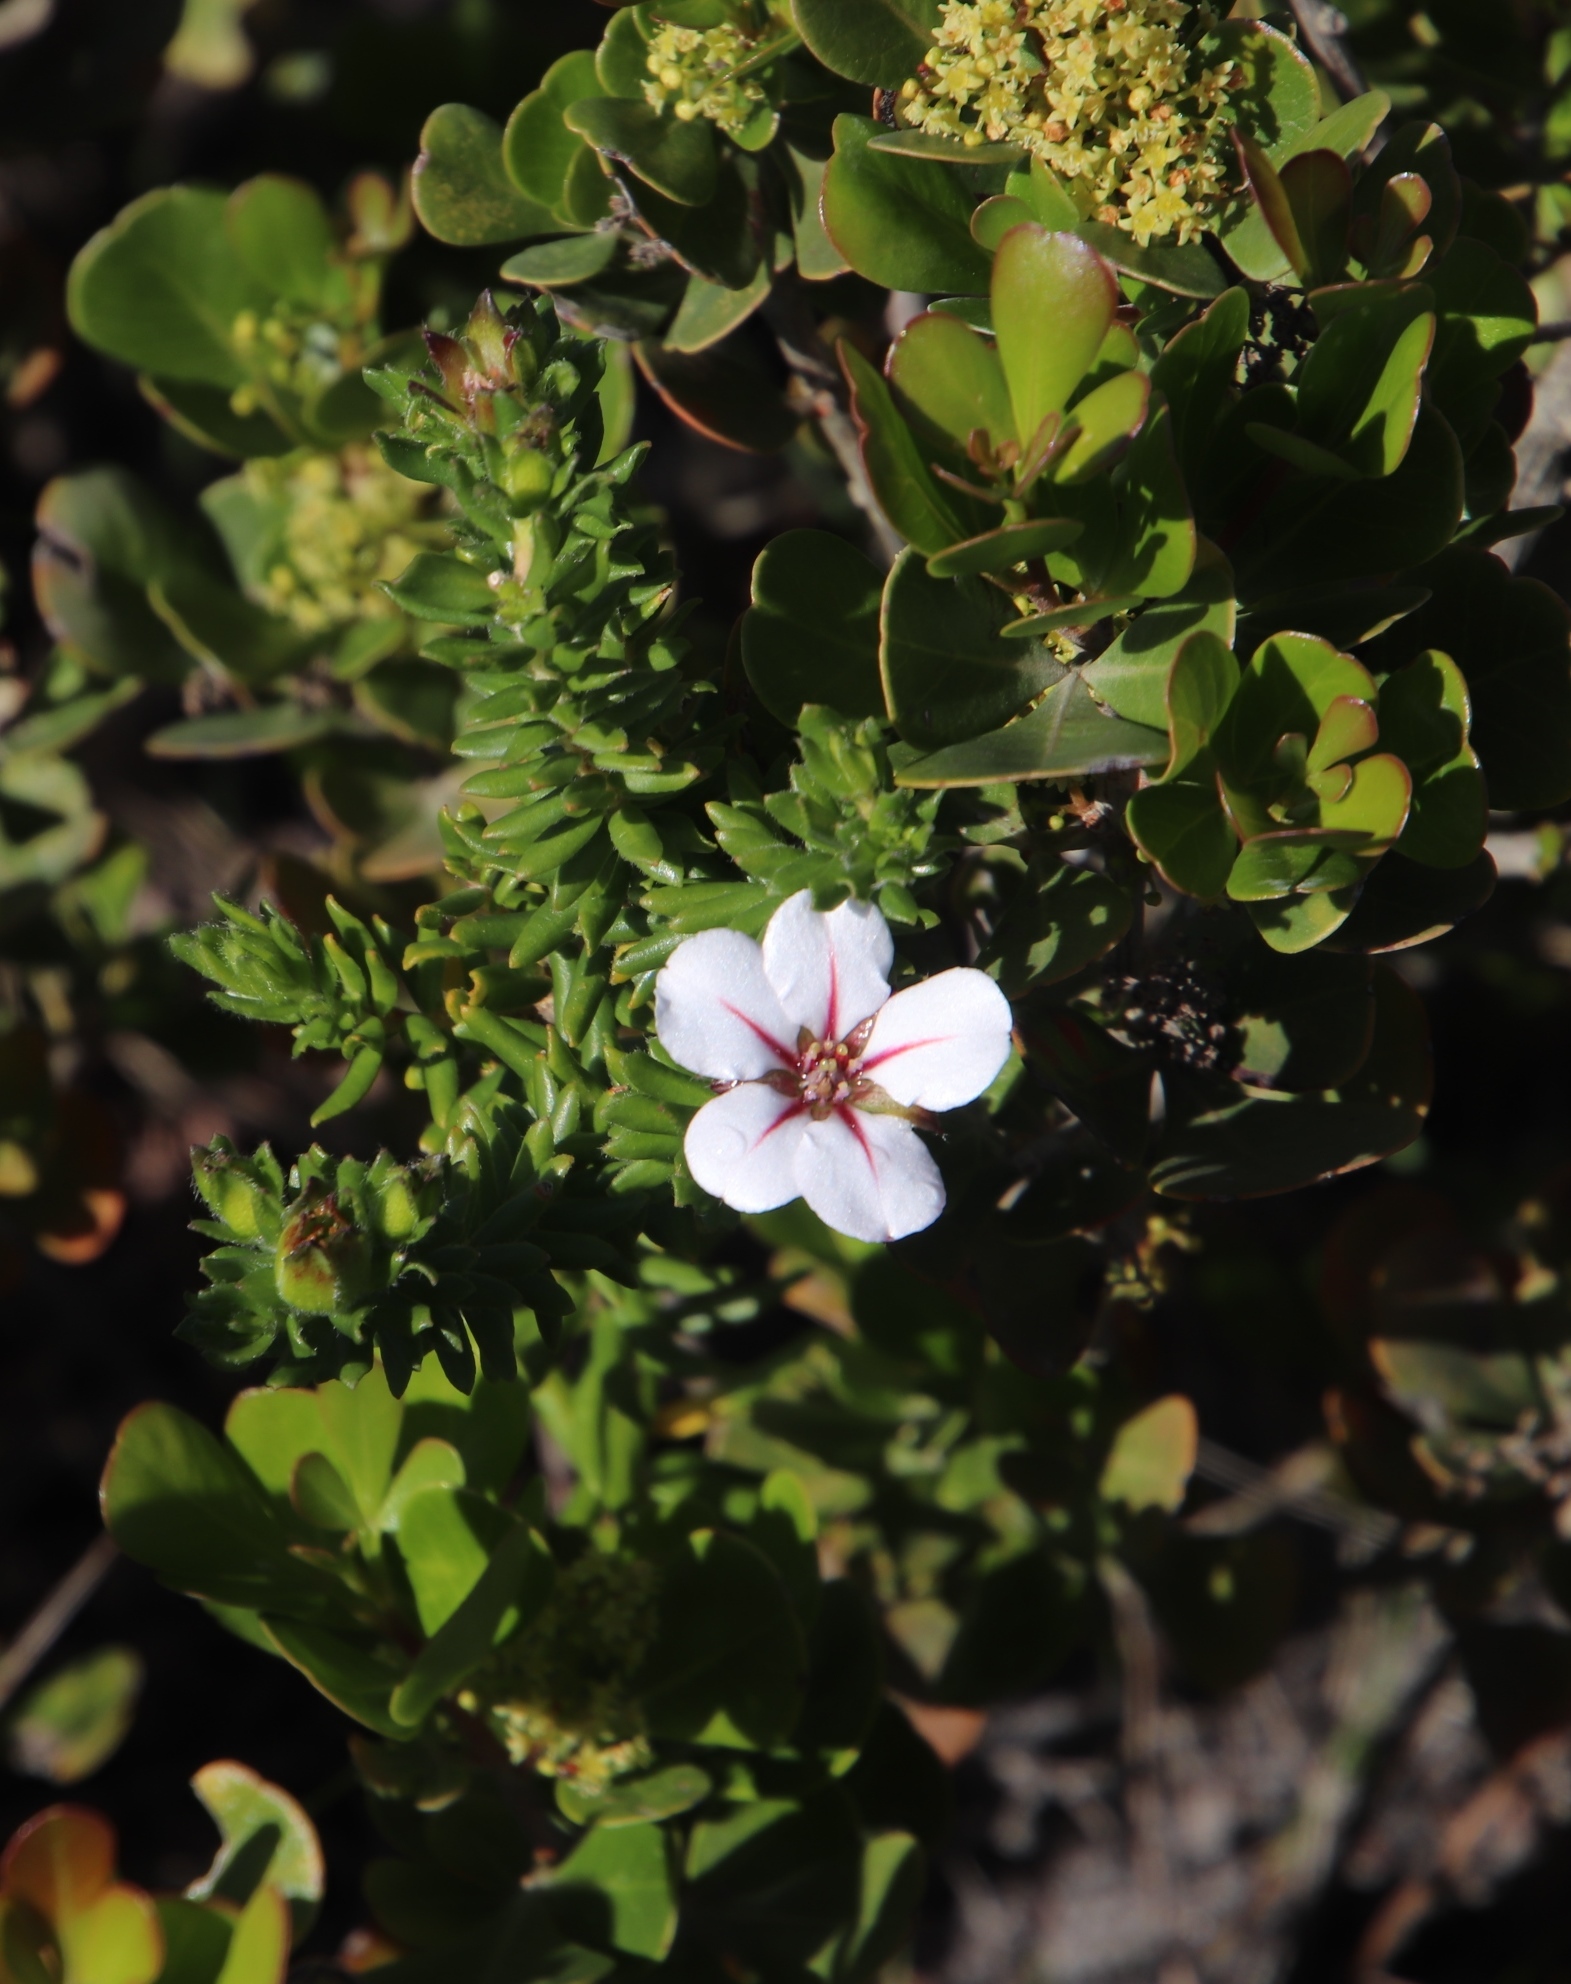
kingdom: Plantae
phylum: Tracheophyta
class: Magnoliopsida
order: Sapindales
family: Rutaceae
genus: Adenandra
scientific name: Adenandra uniflora
